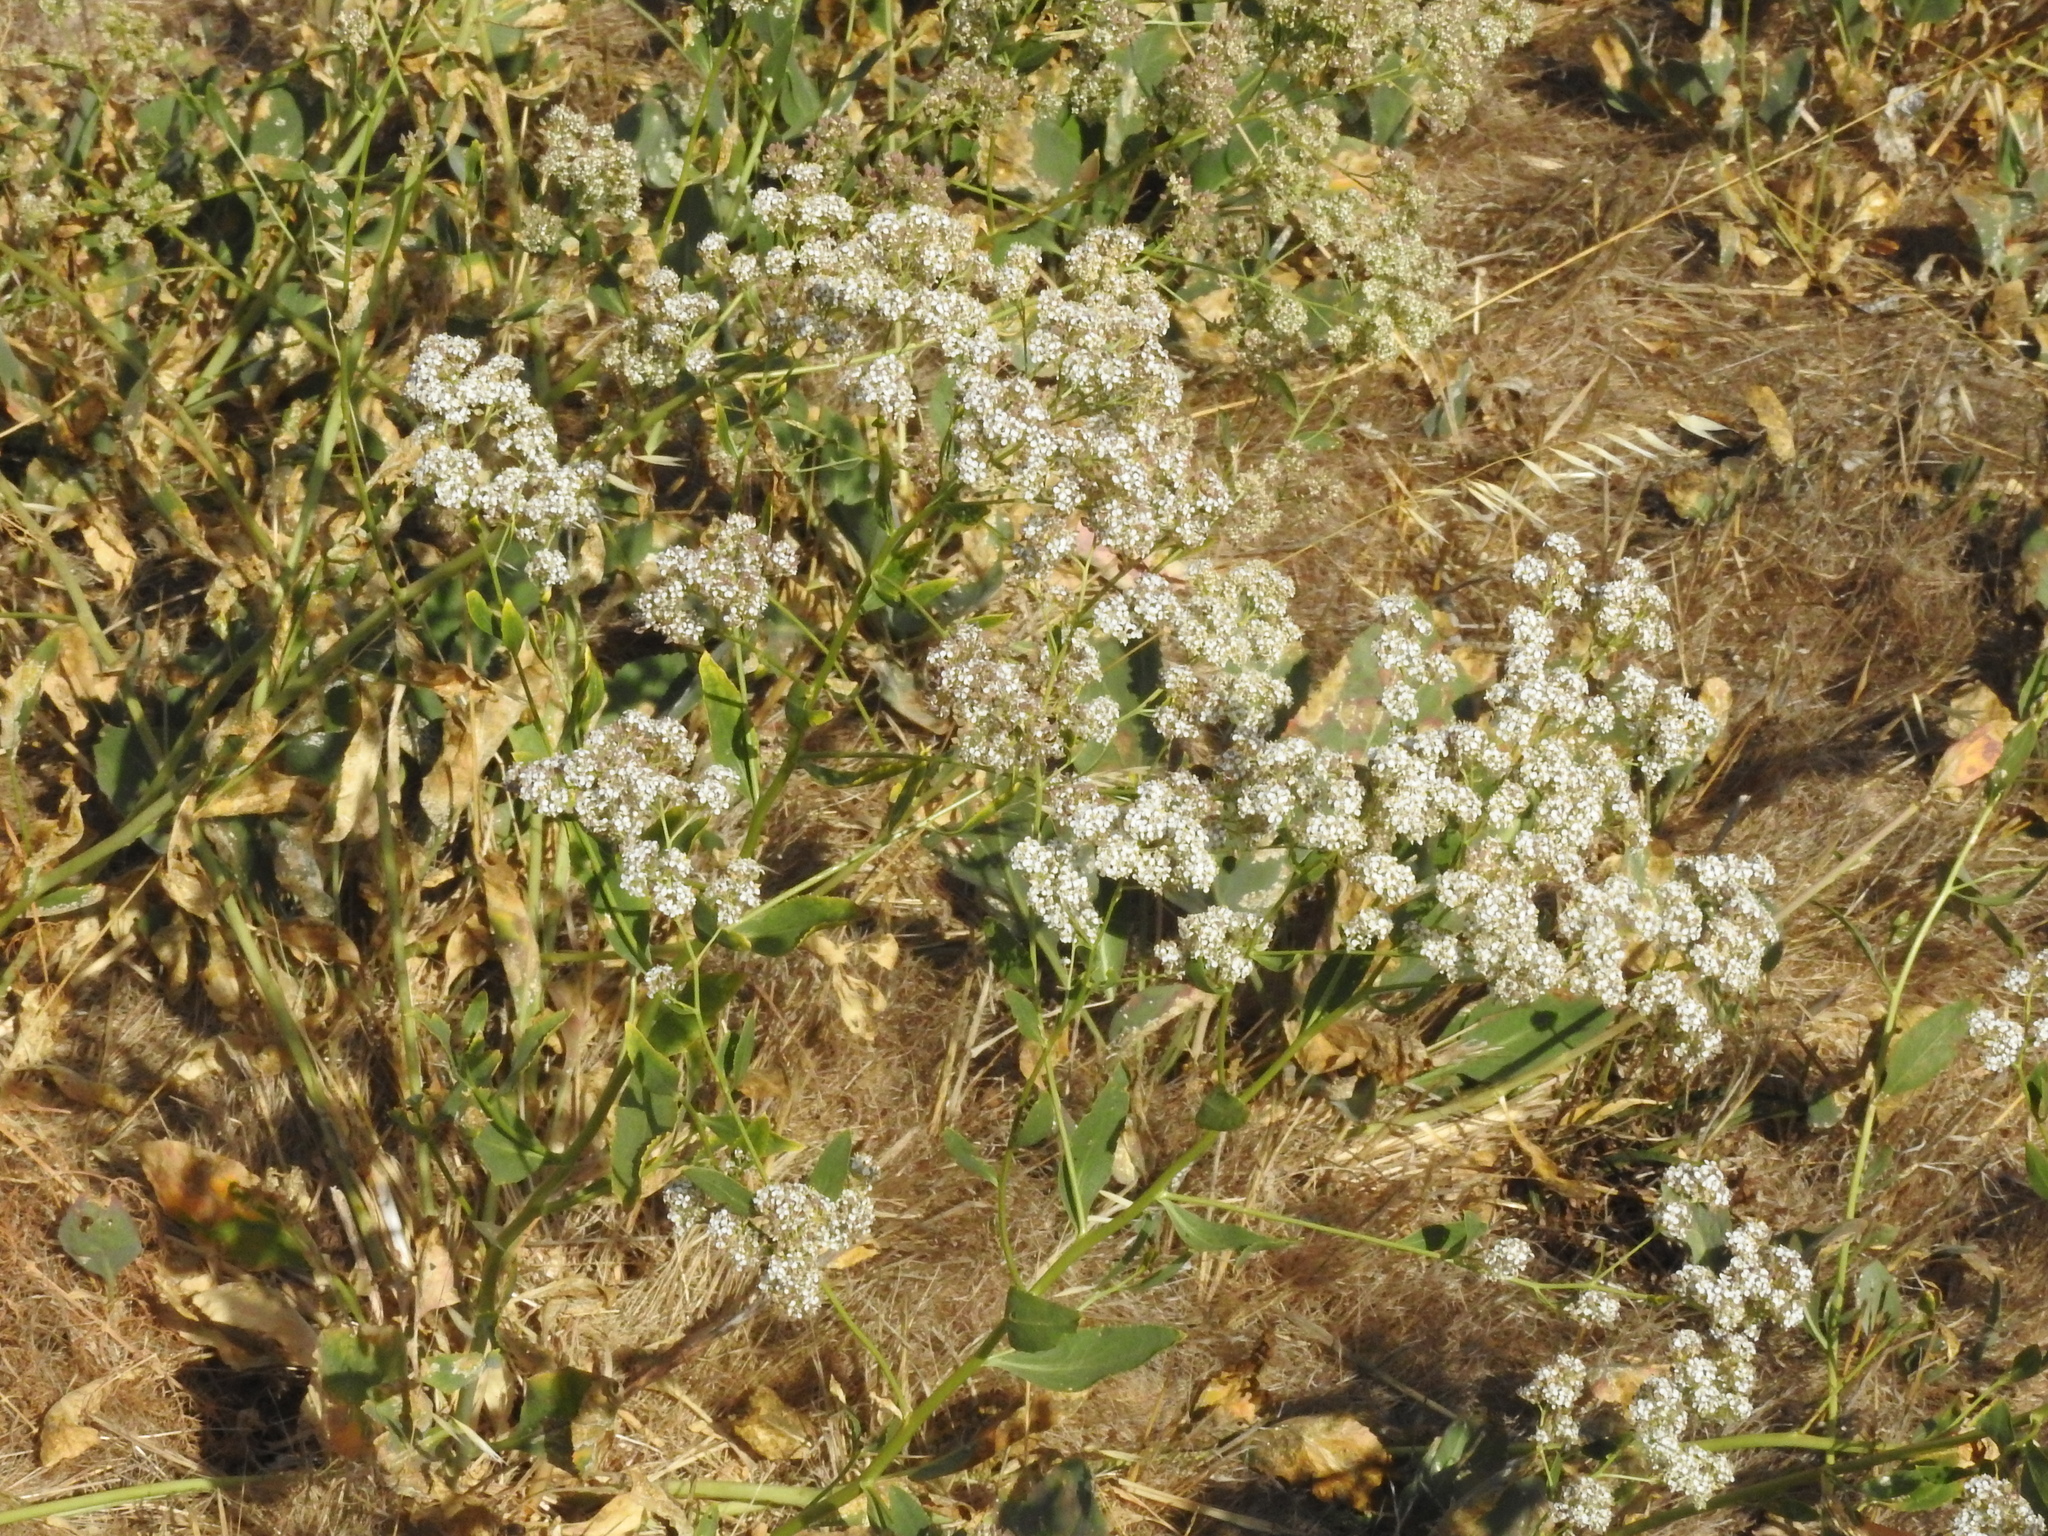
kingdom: Plantae
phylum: Tracheophyta
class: Magnoliopsida
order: Brassicales
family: Brassicaceae
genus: Lepidium
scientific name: Lepidium latifolium
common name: Dittander
